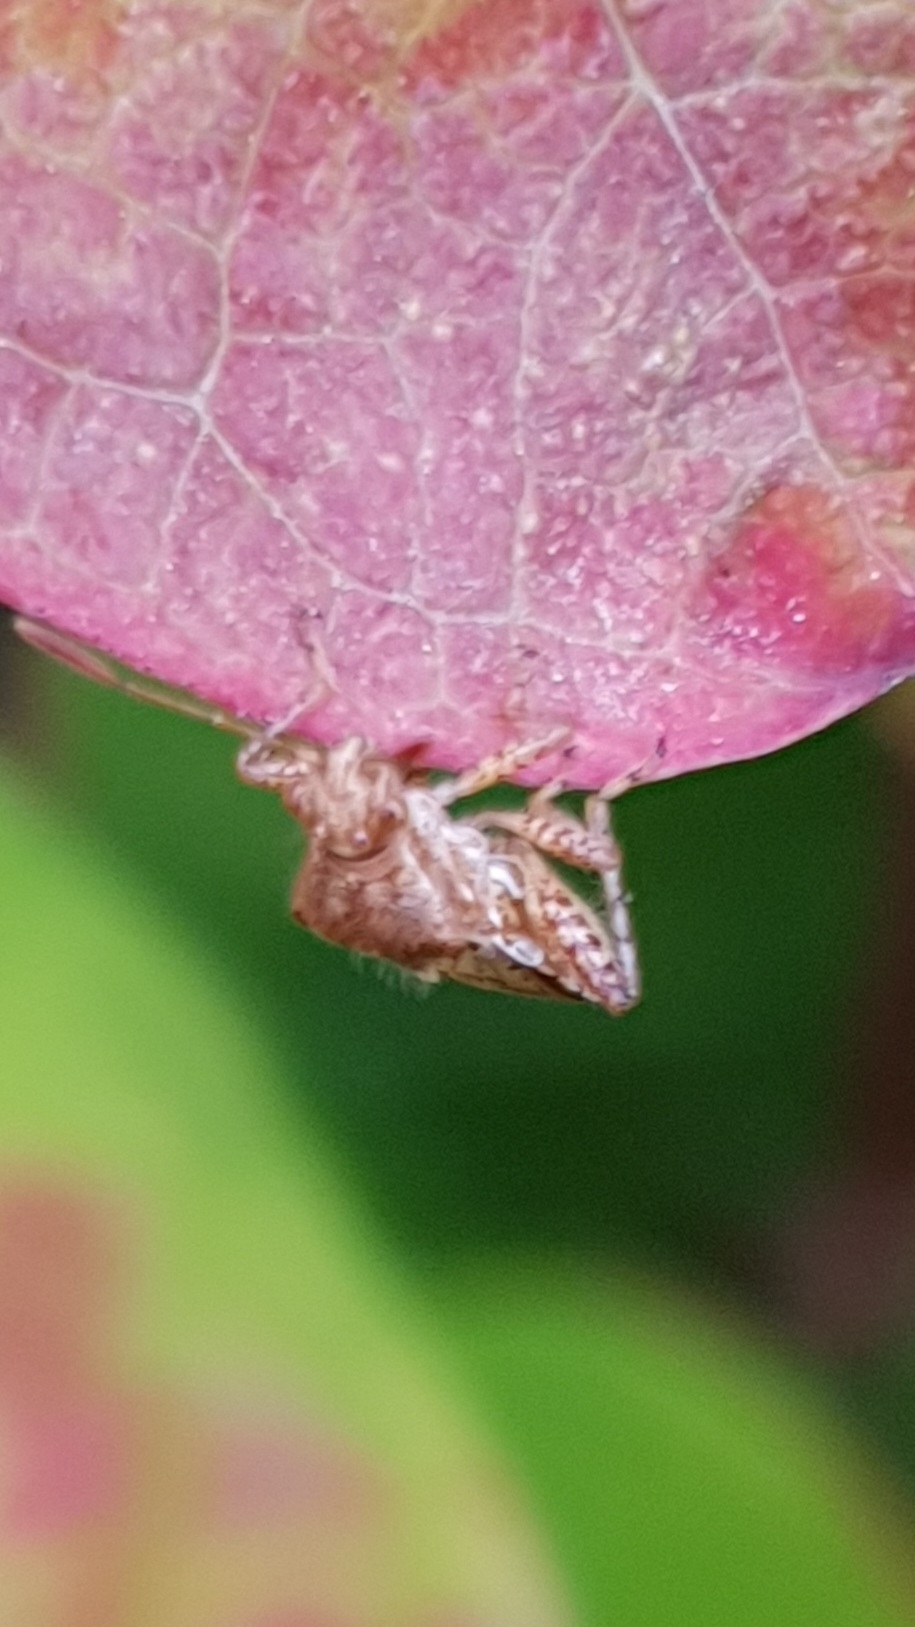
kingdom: Animalia
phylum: Arthropoda
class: Insecta
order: Hemiptera
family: Rhopalidae
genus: Rhopalus
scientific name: Rhopalus subrufus
